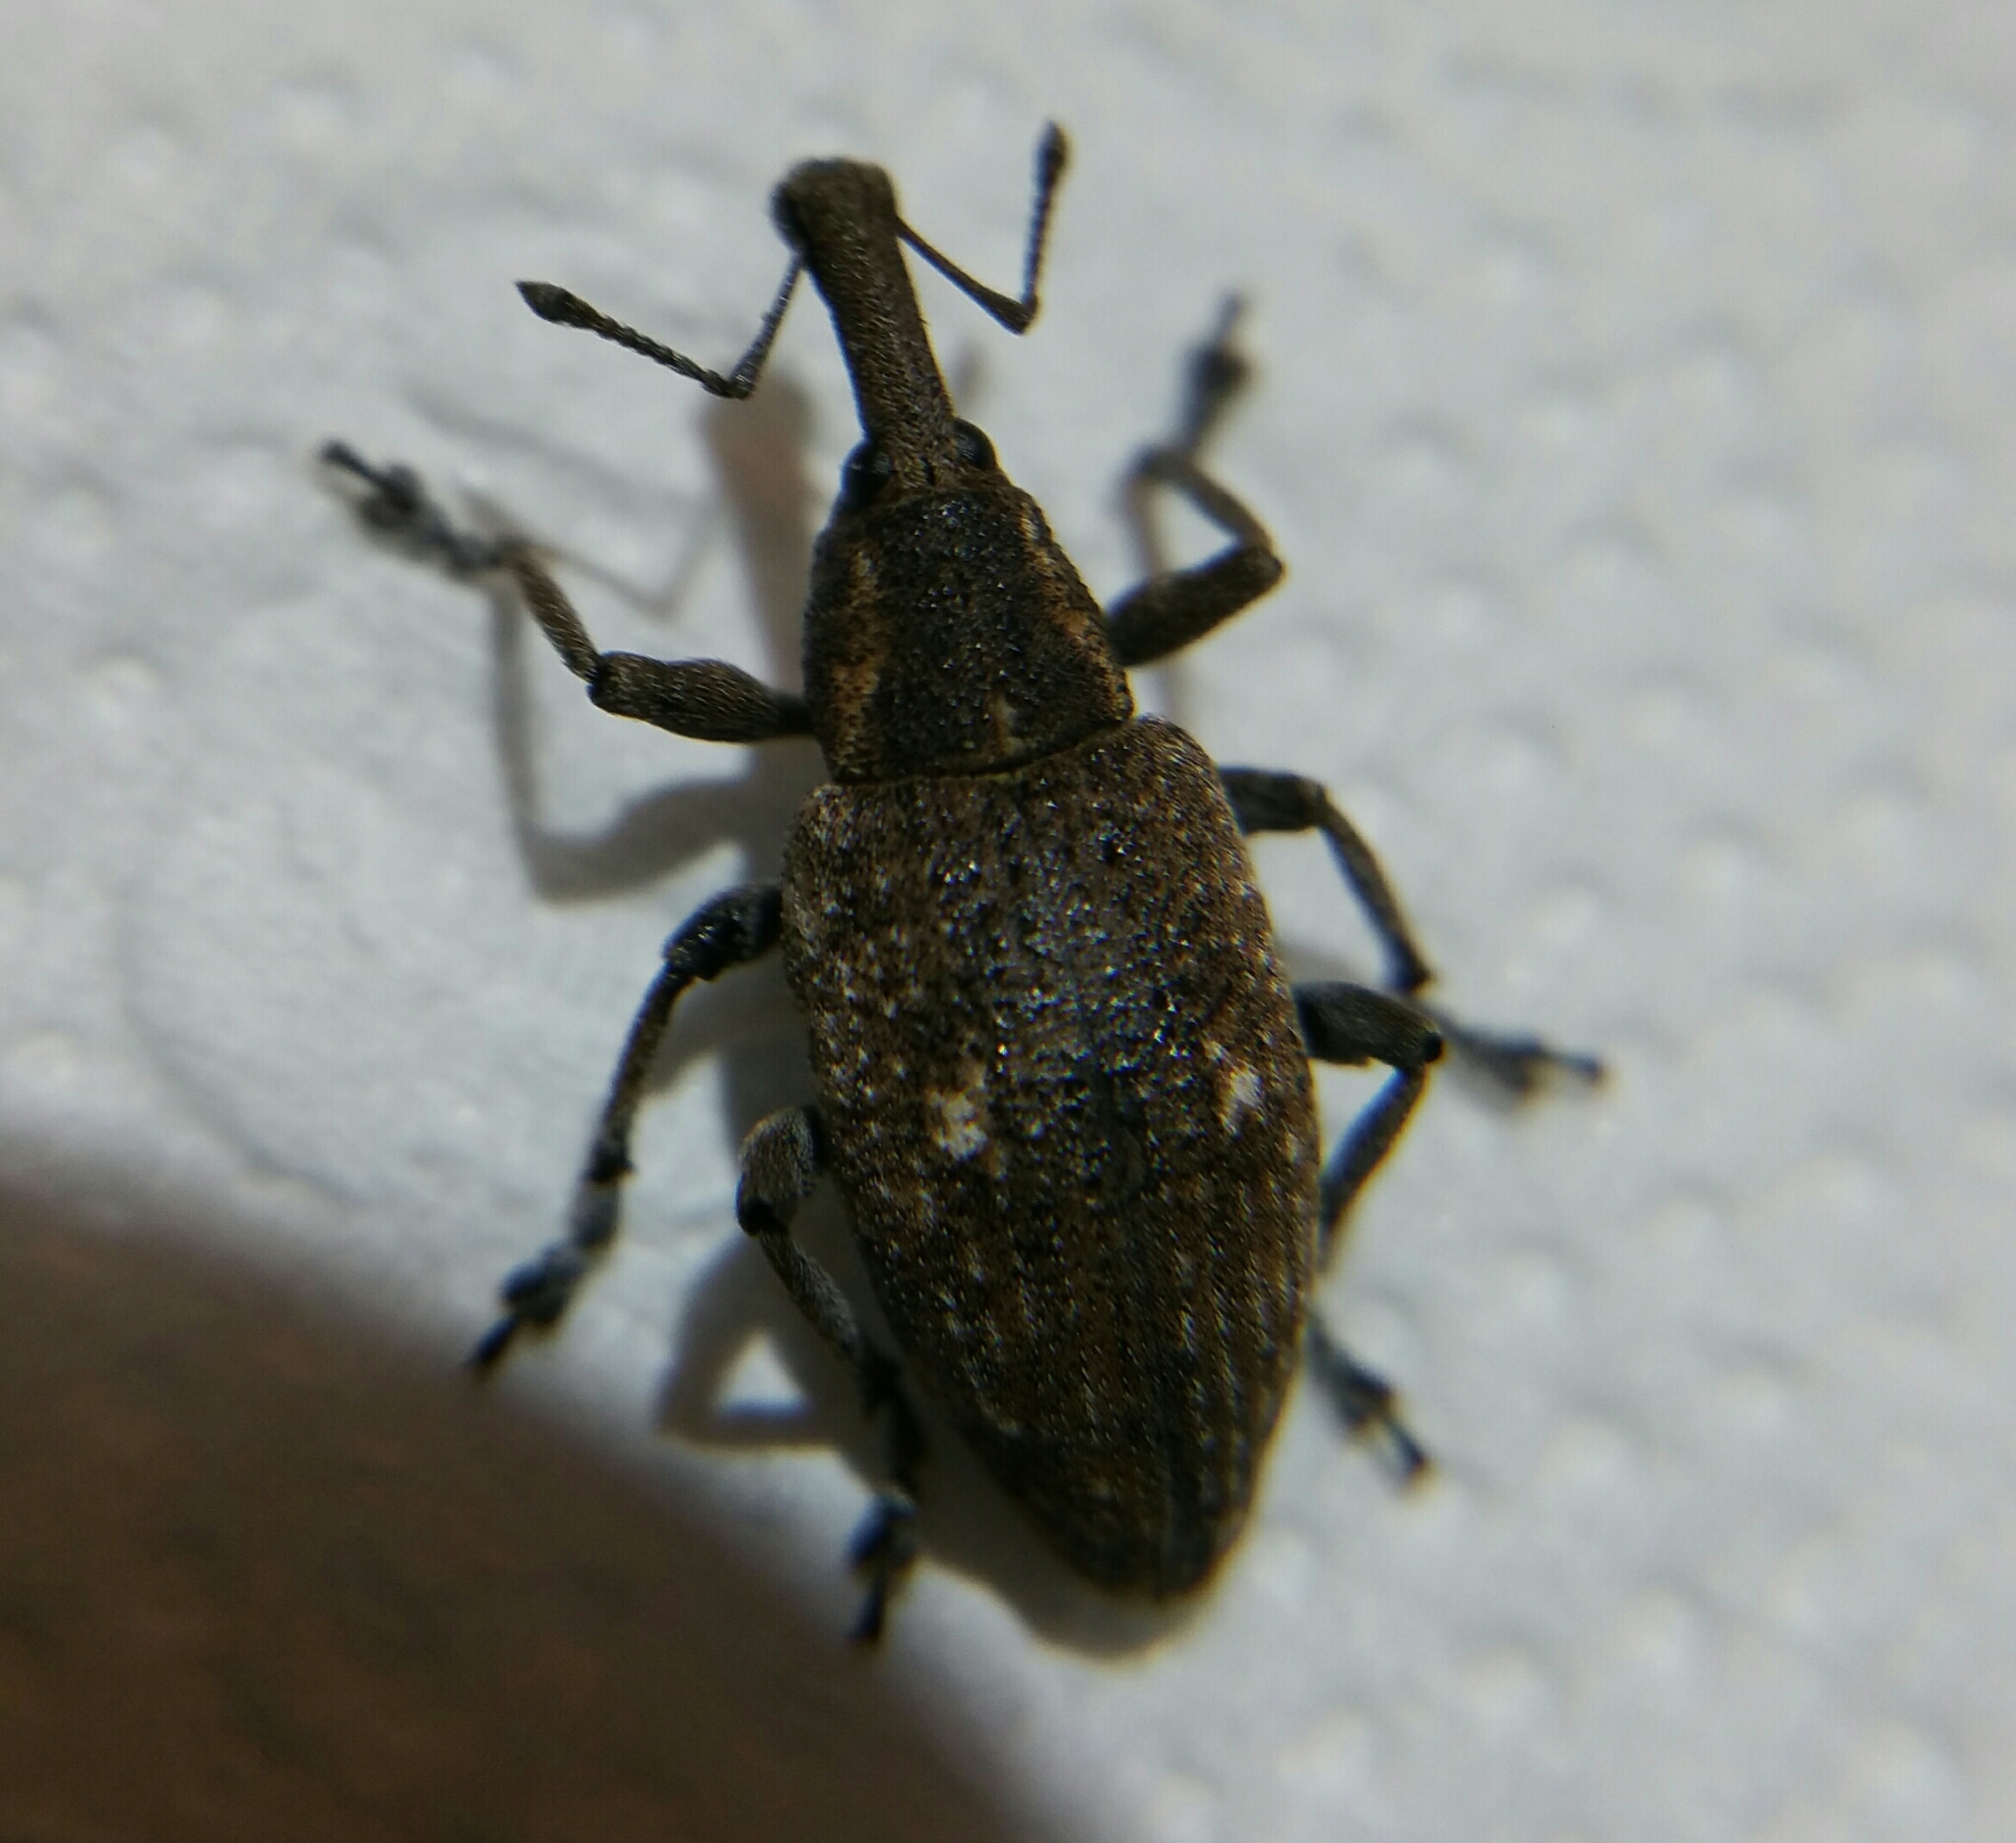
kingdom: Animalia
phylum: Arthropoda
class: Insecta
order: Coleoptera
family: Curculionidae
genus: Lepyrus
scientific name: Lepyrus palustris
